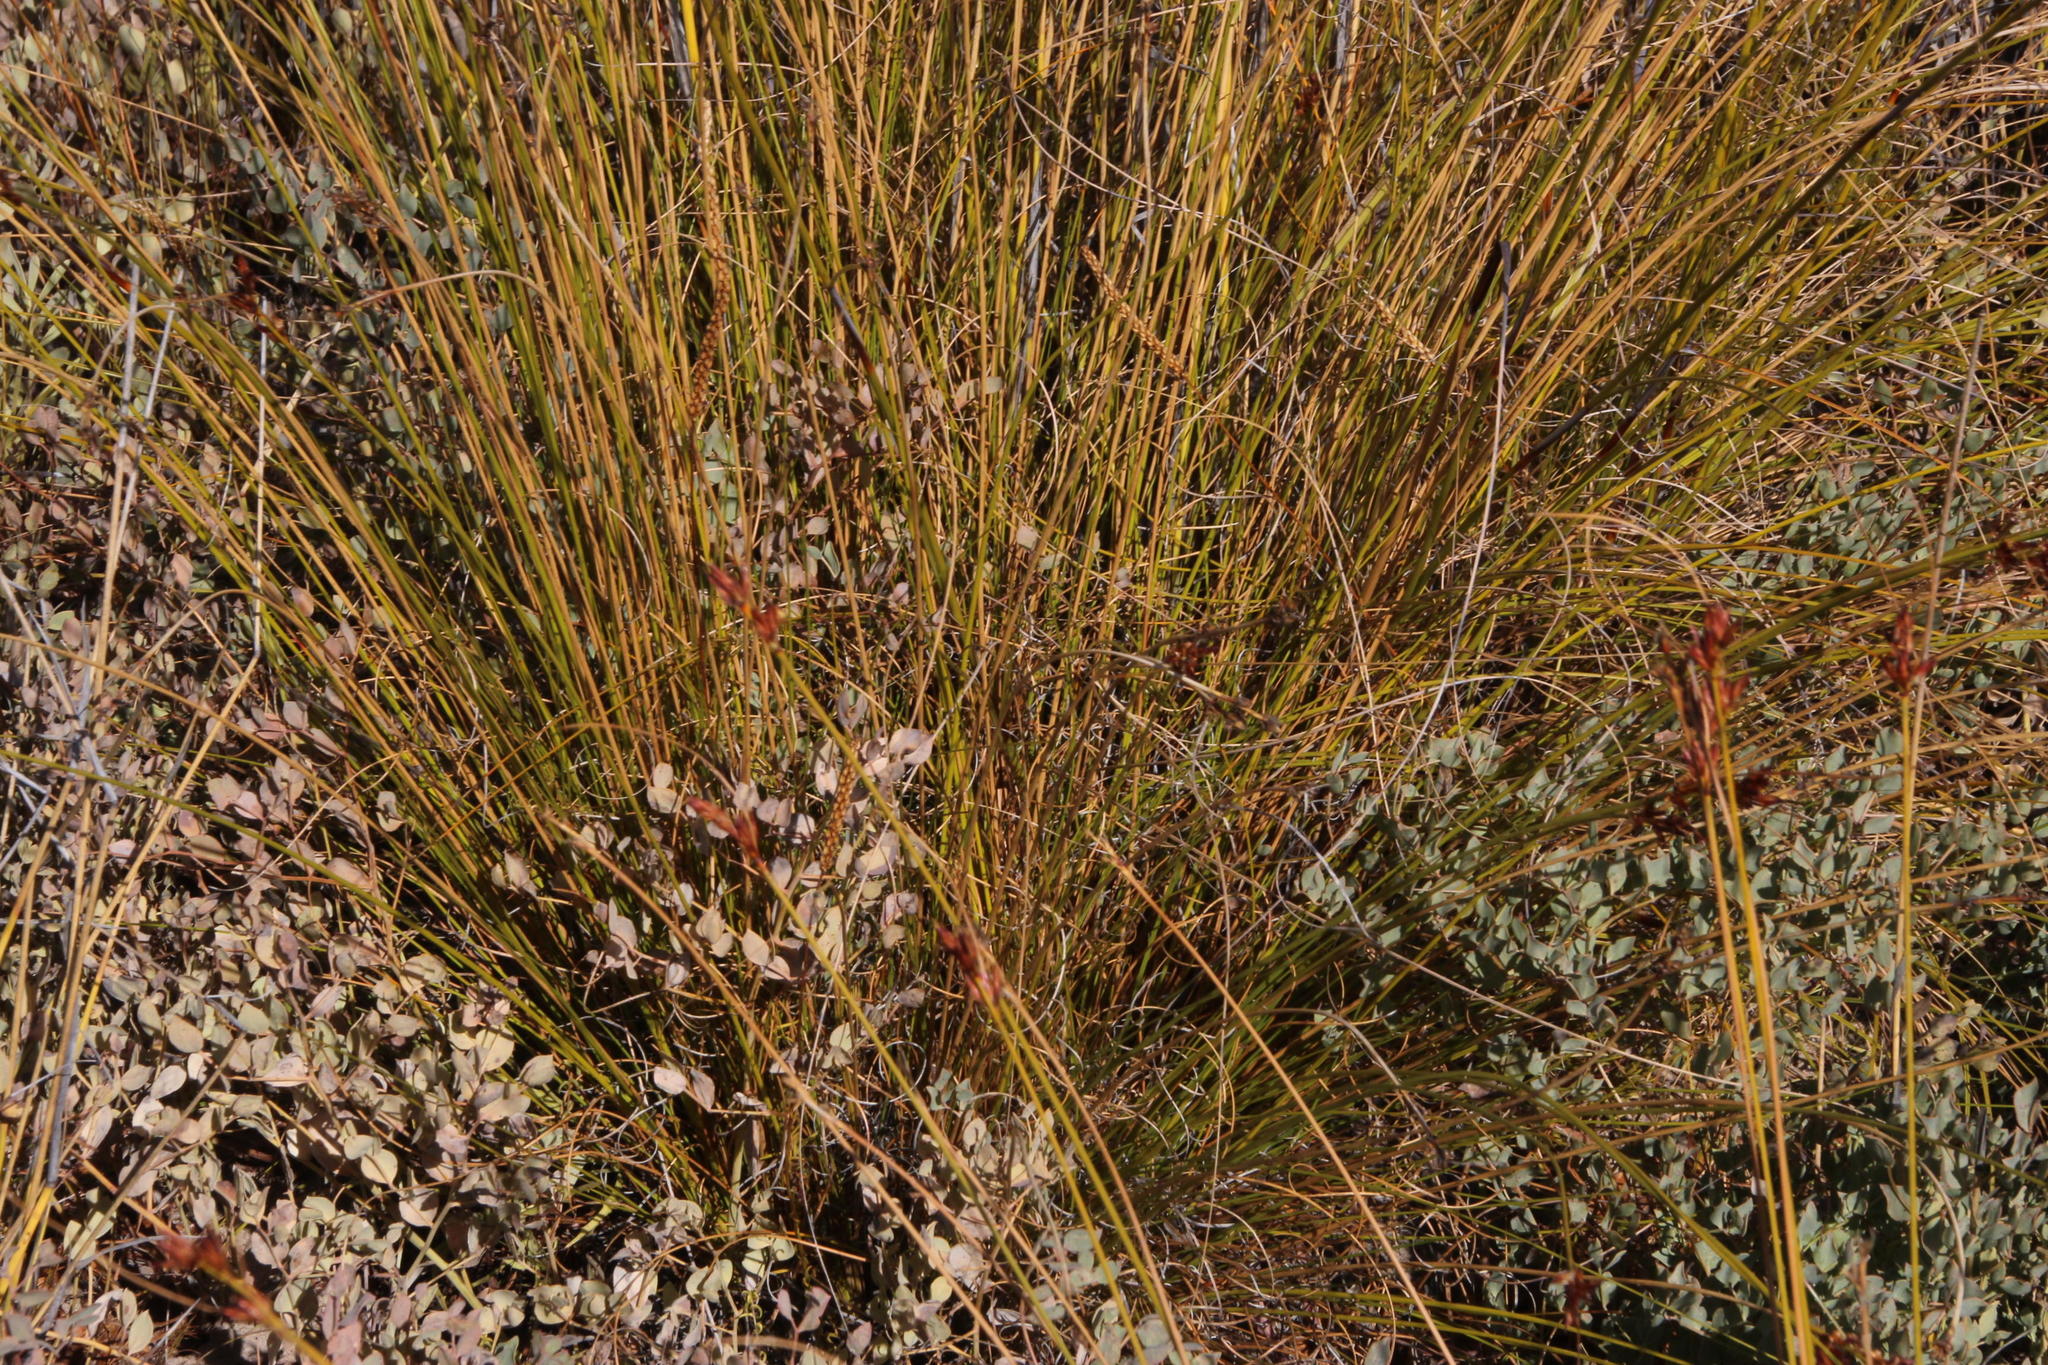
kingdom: Plantae
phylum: Tracheophyta
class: Liliopsida
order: Poales
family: Cyperaceae
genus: Tetraria
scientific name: Tetraria ustulata
